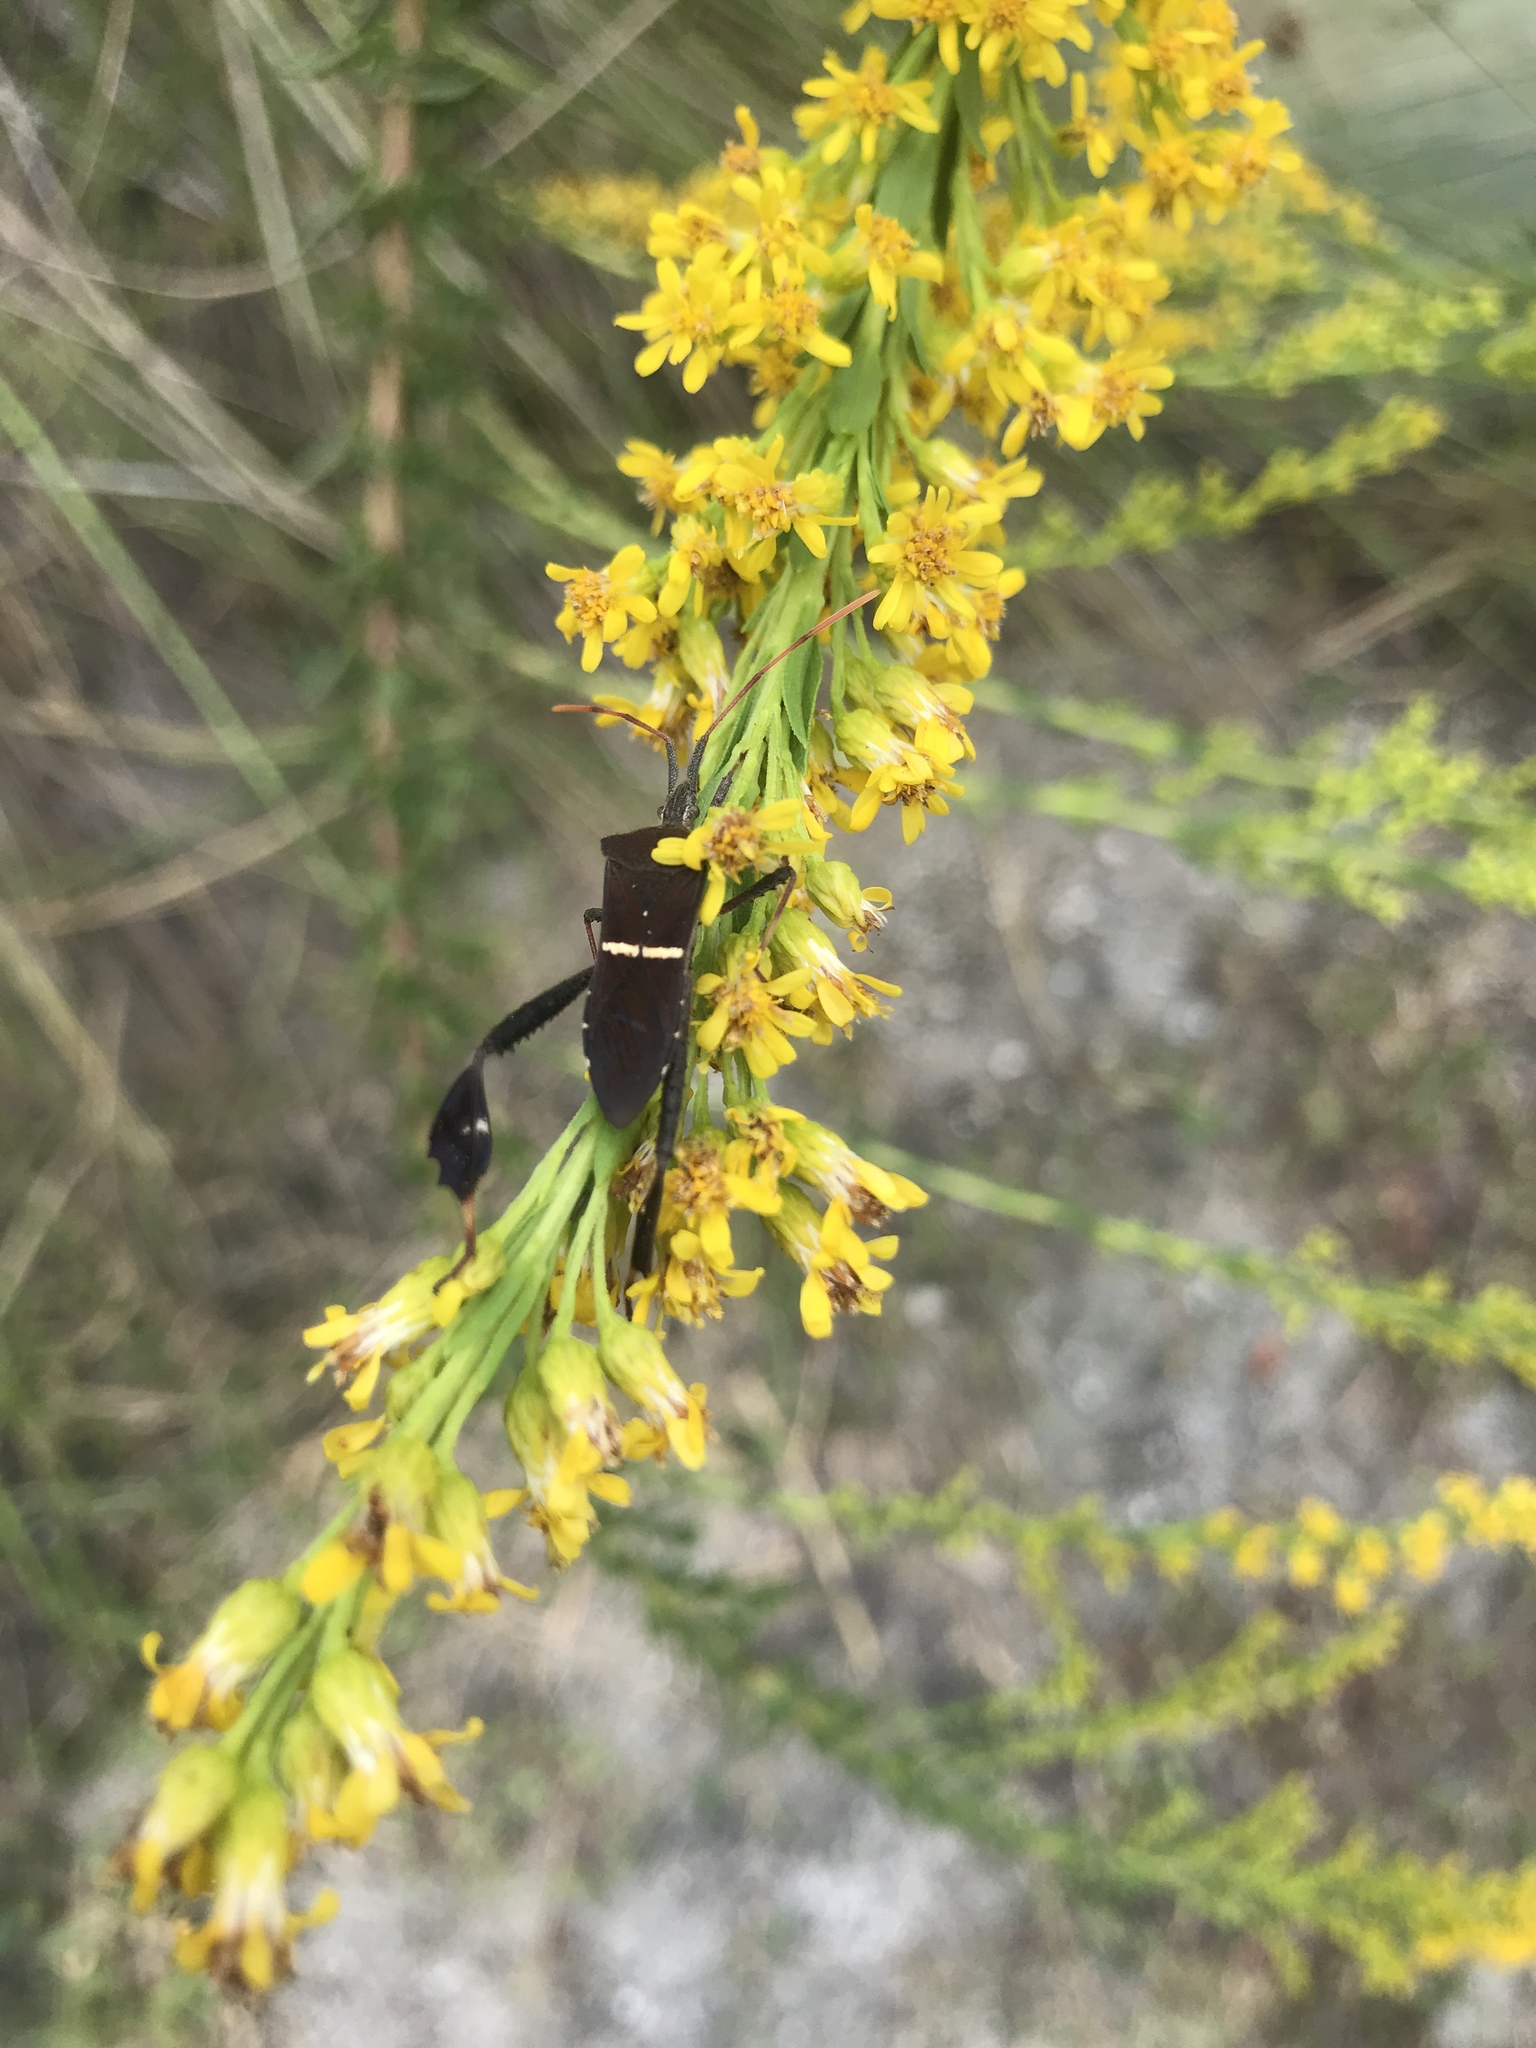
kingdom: Animalia
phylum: Arthropoda
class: Insecta
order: Hemiptera
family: Coreidae
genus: Leptoglossus
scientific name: Leptoglossus phyllopus
